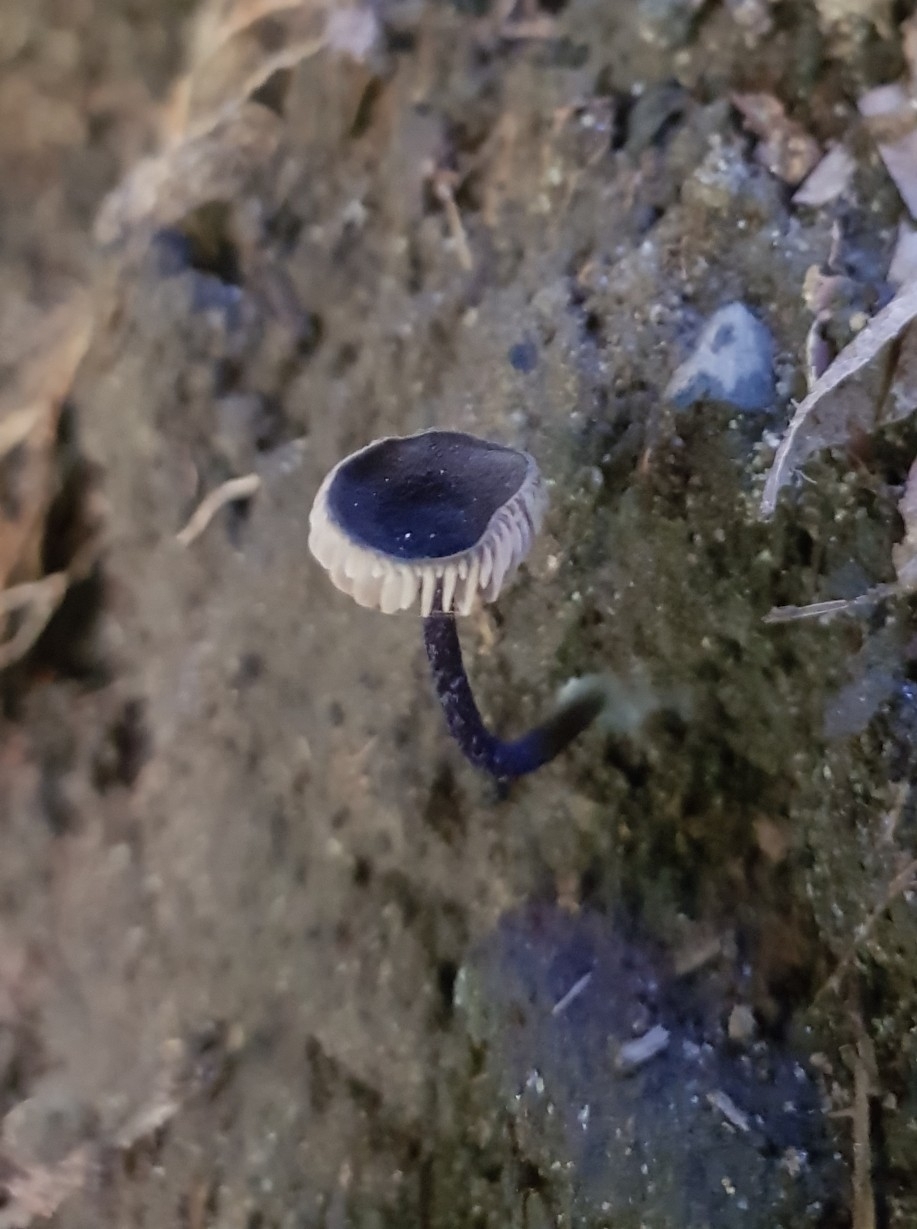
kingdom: Fungi
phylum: Basidiomycota
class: Agaricomycetes
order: Agaricales
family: Entolomataceae
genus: Entoloma
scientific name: Entoloma panniculus
